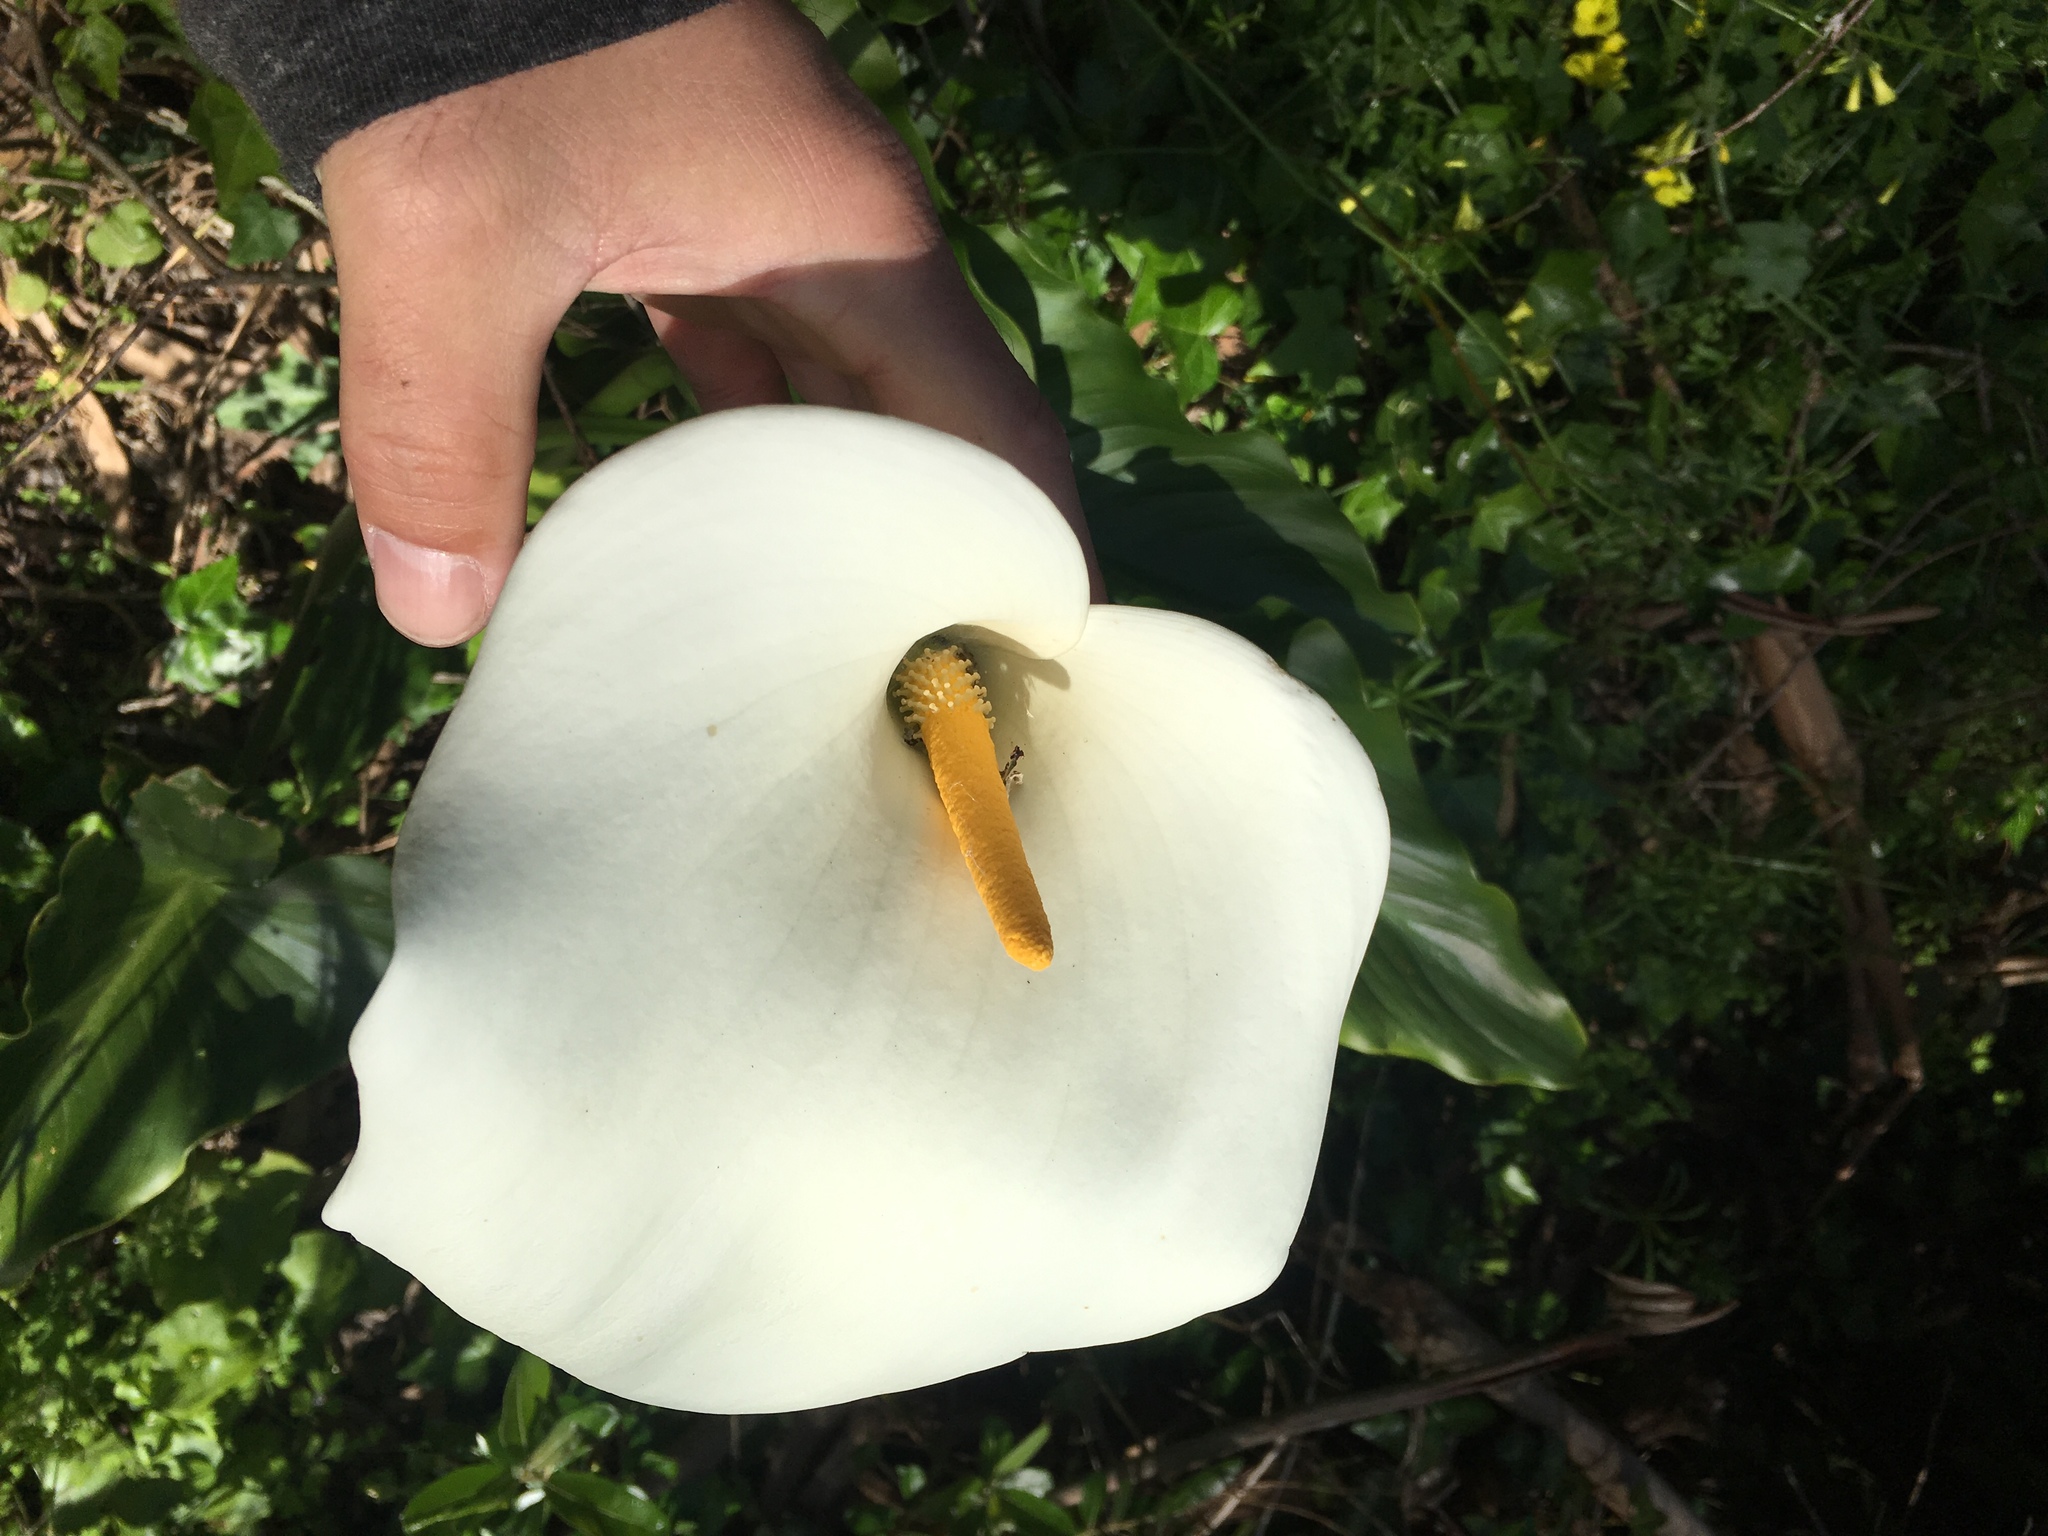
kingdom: Plantae
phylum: Tracheophyta
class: Liliopsida
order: Alismatales
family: Araceae
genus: Zantedeschia
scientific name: Zantedeschia aethiopica
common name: Altar-lily
